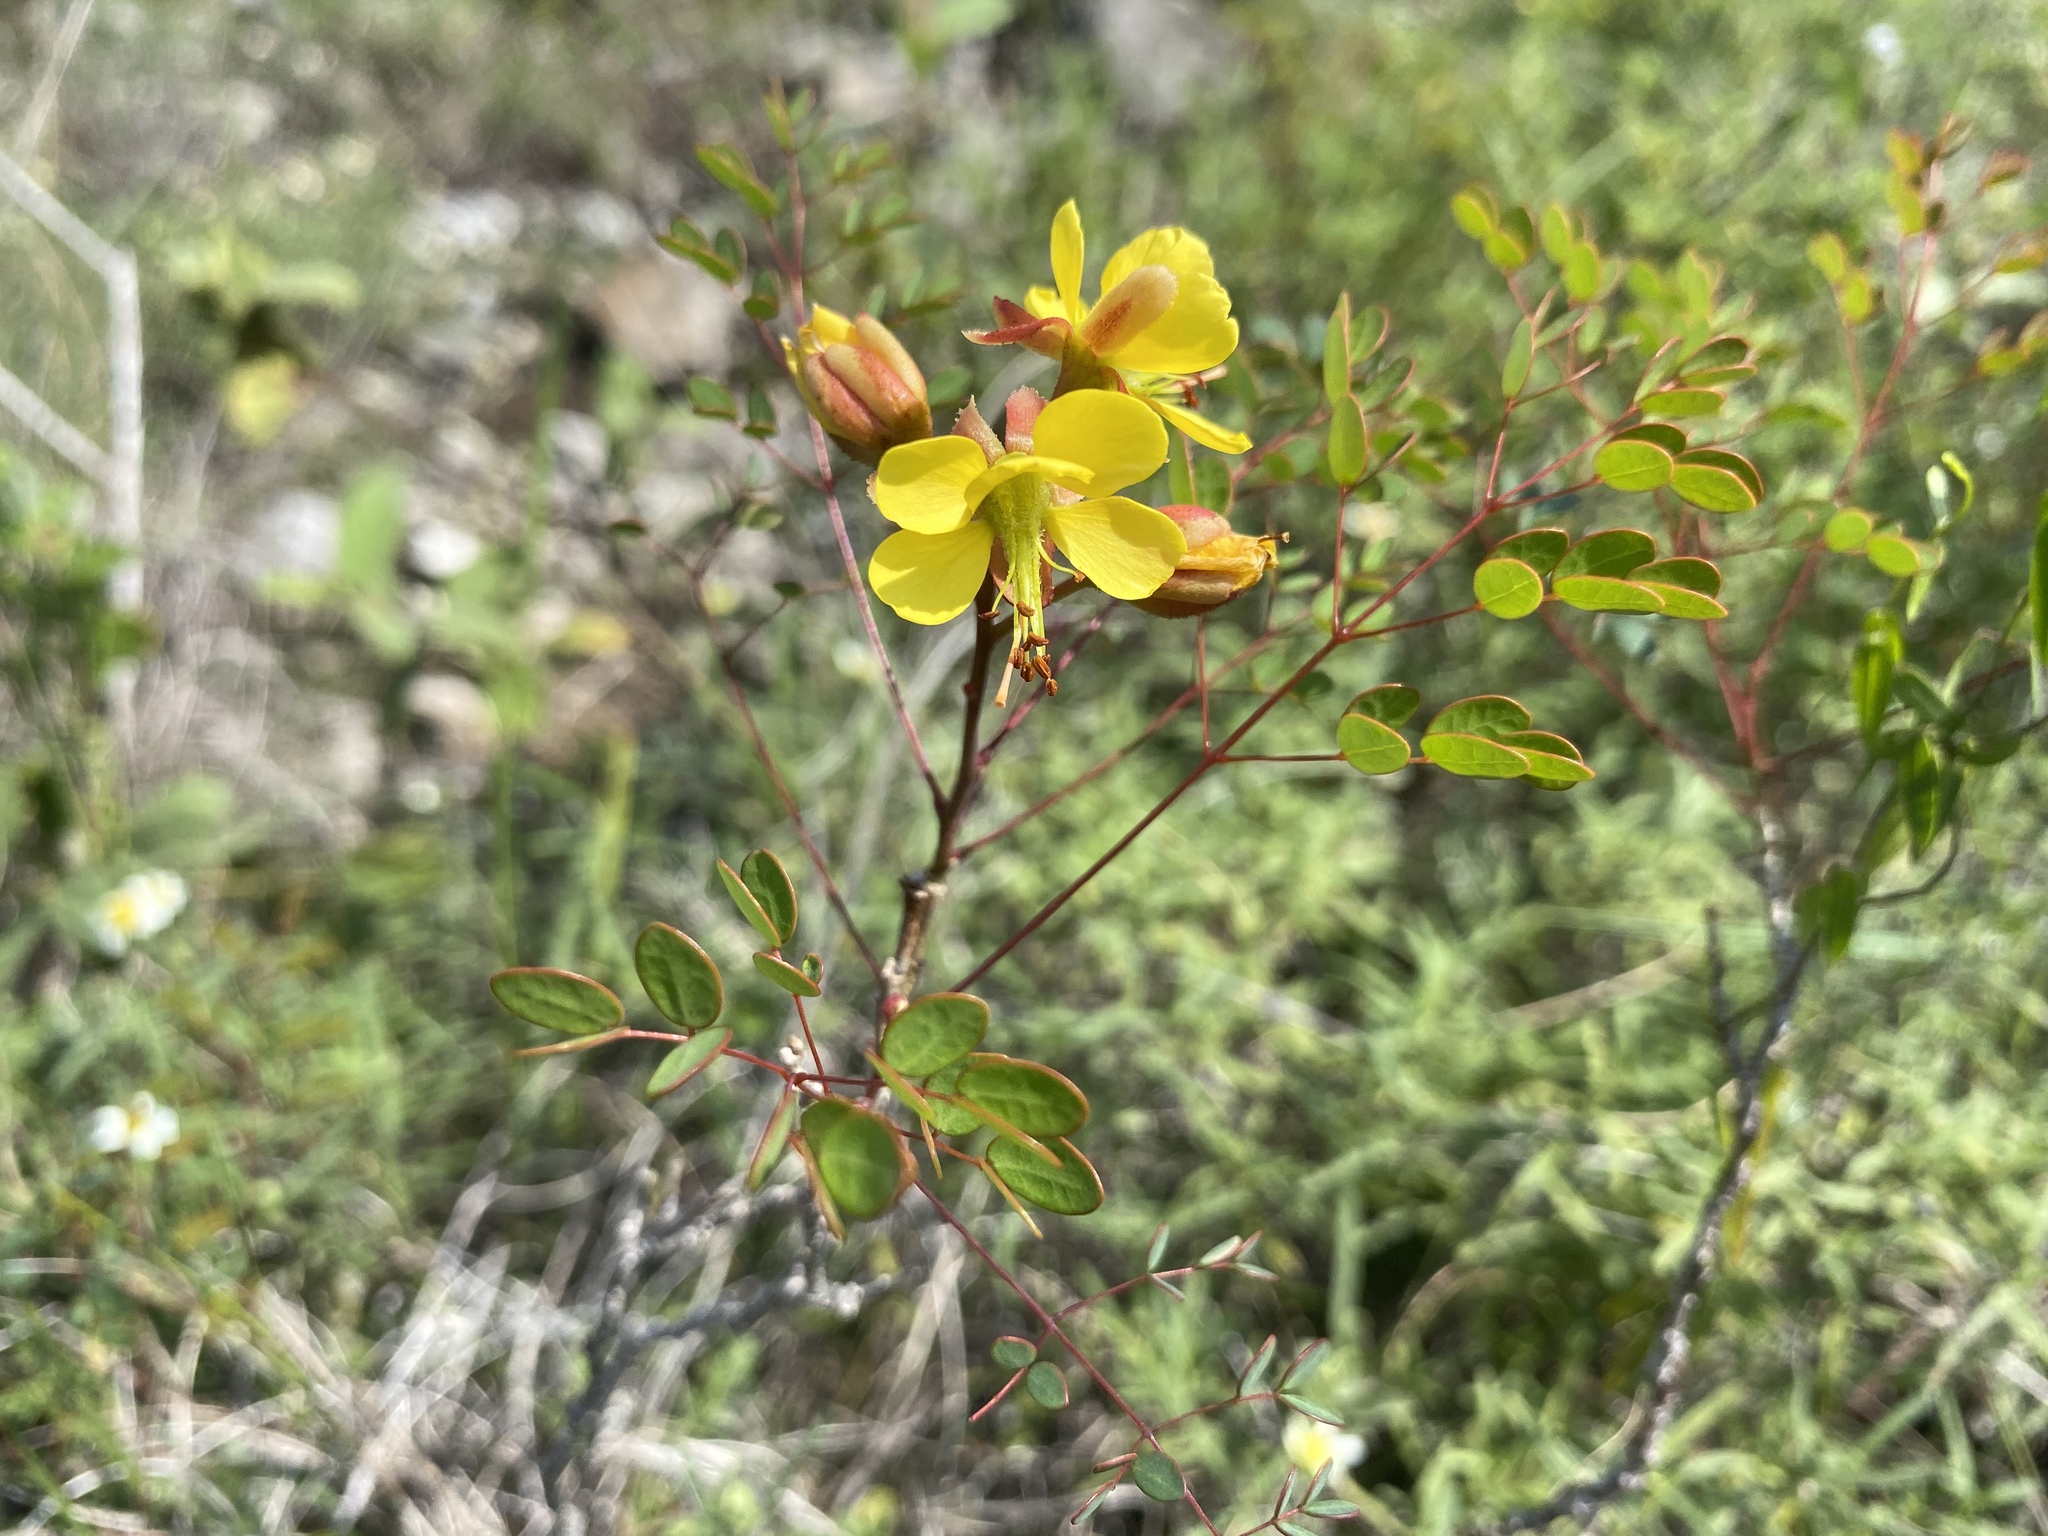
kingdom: Plantae
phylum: Tracheophyta
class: Magnoliopsida
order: Fabales
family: Fabaceae
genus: Erythrostemon
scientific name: Erythrostemon phyllanthoides
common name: Creeping bird of paradise
